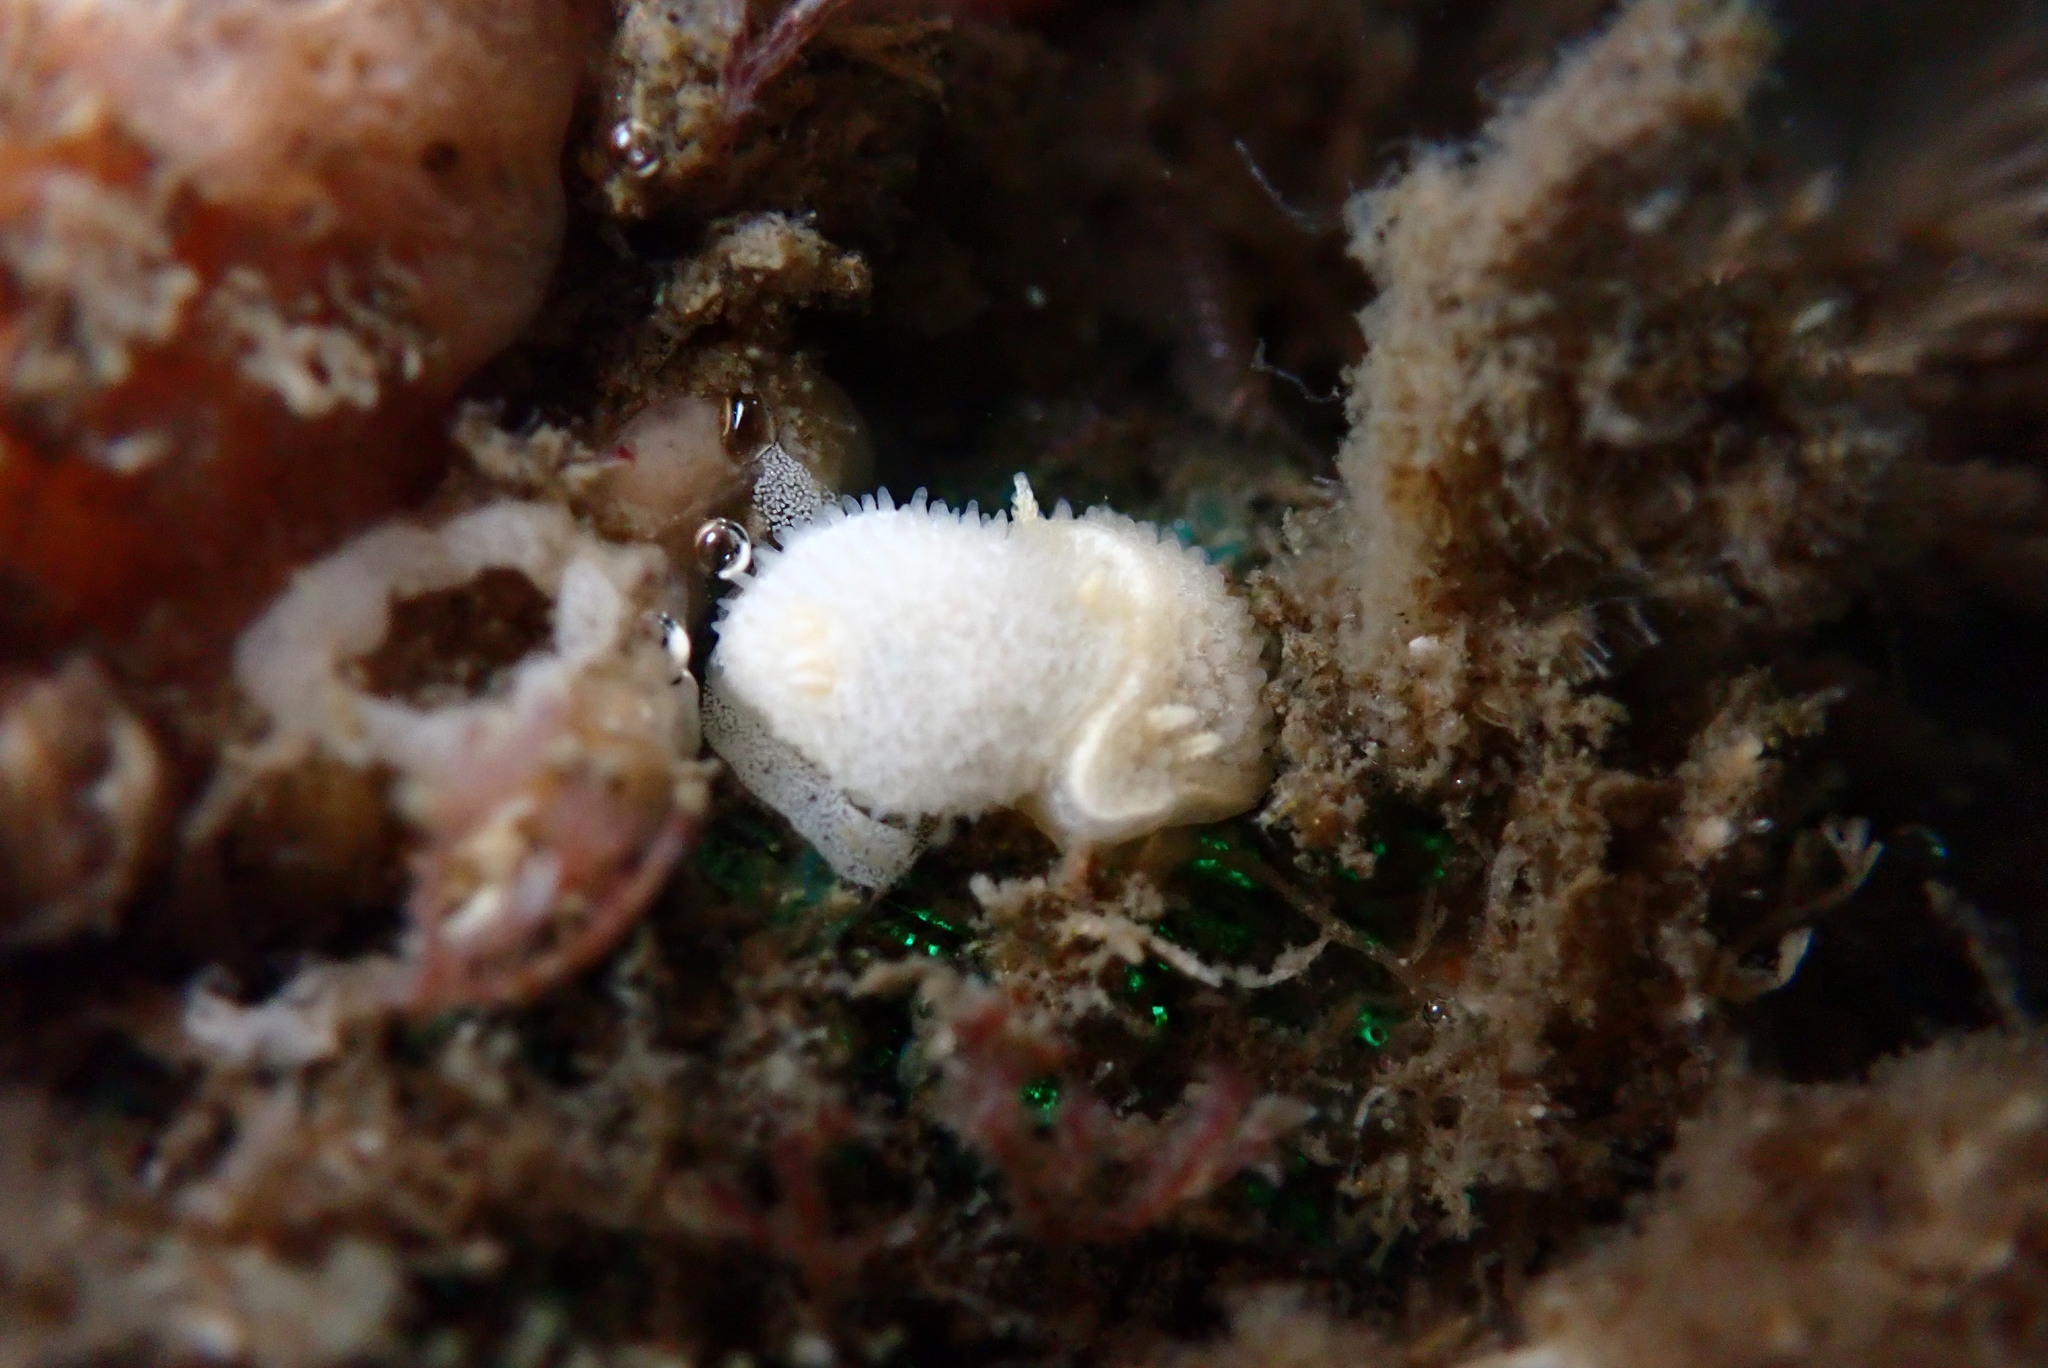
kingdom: Animalia
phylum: Mollusca
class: Gastropoda
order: Nudibranchia
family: Calycidorididae
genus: Diaphorodoris
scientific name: Diaphorodoris lirulatocauda
